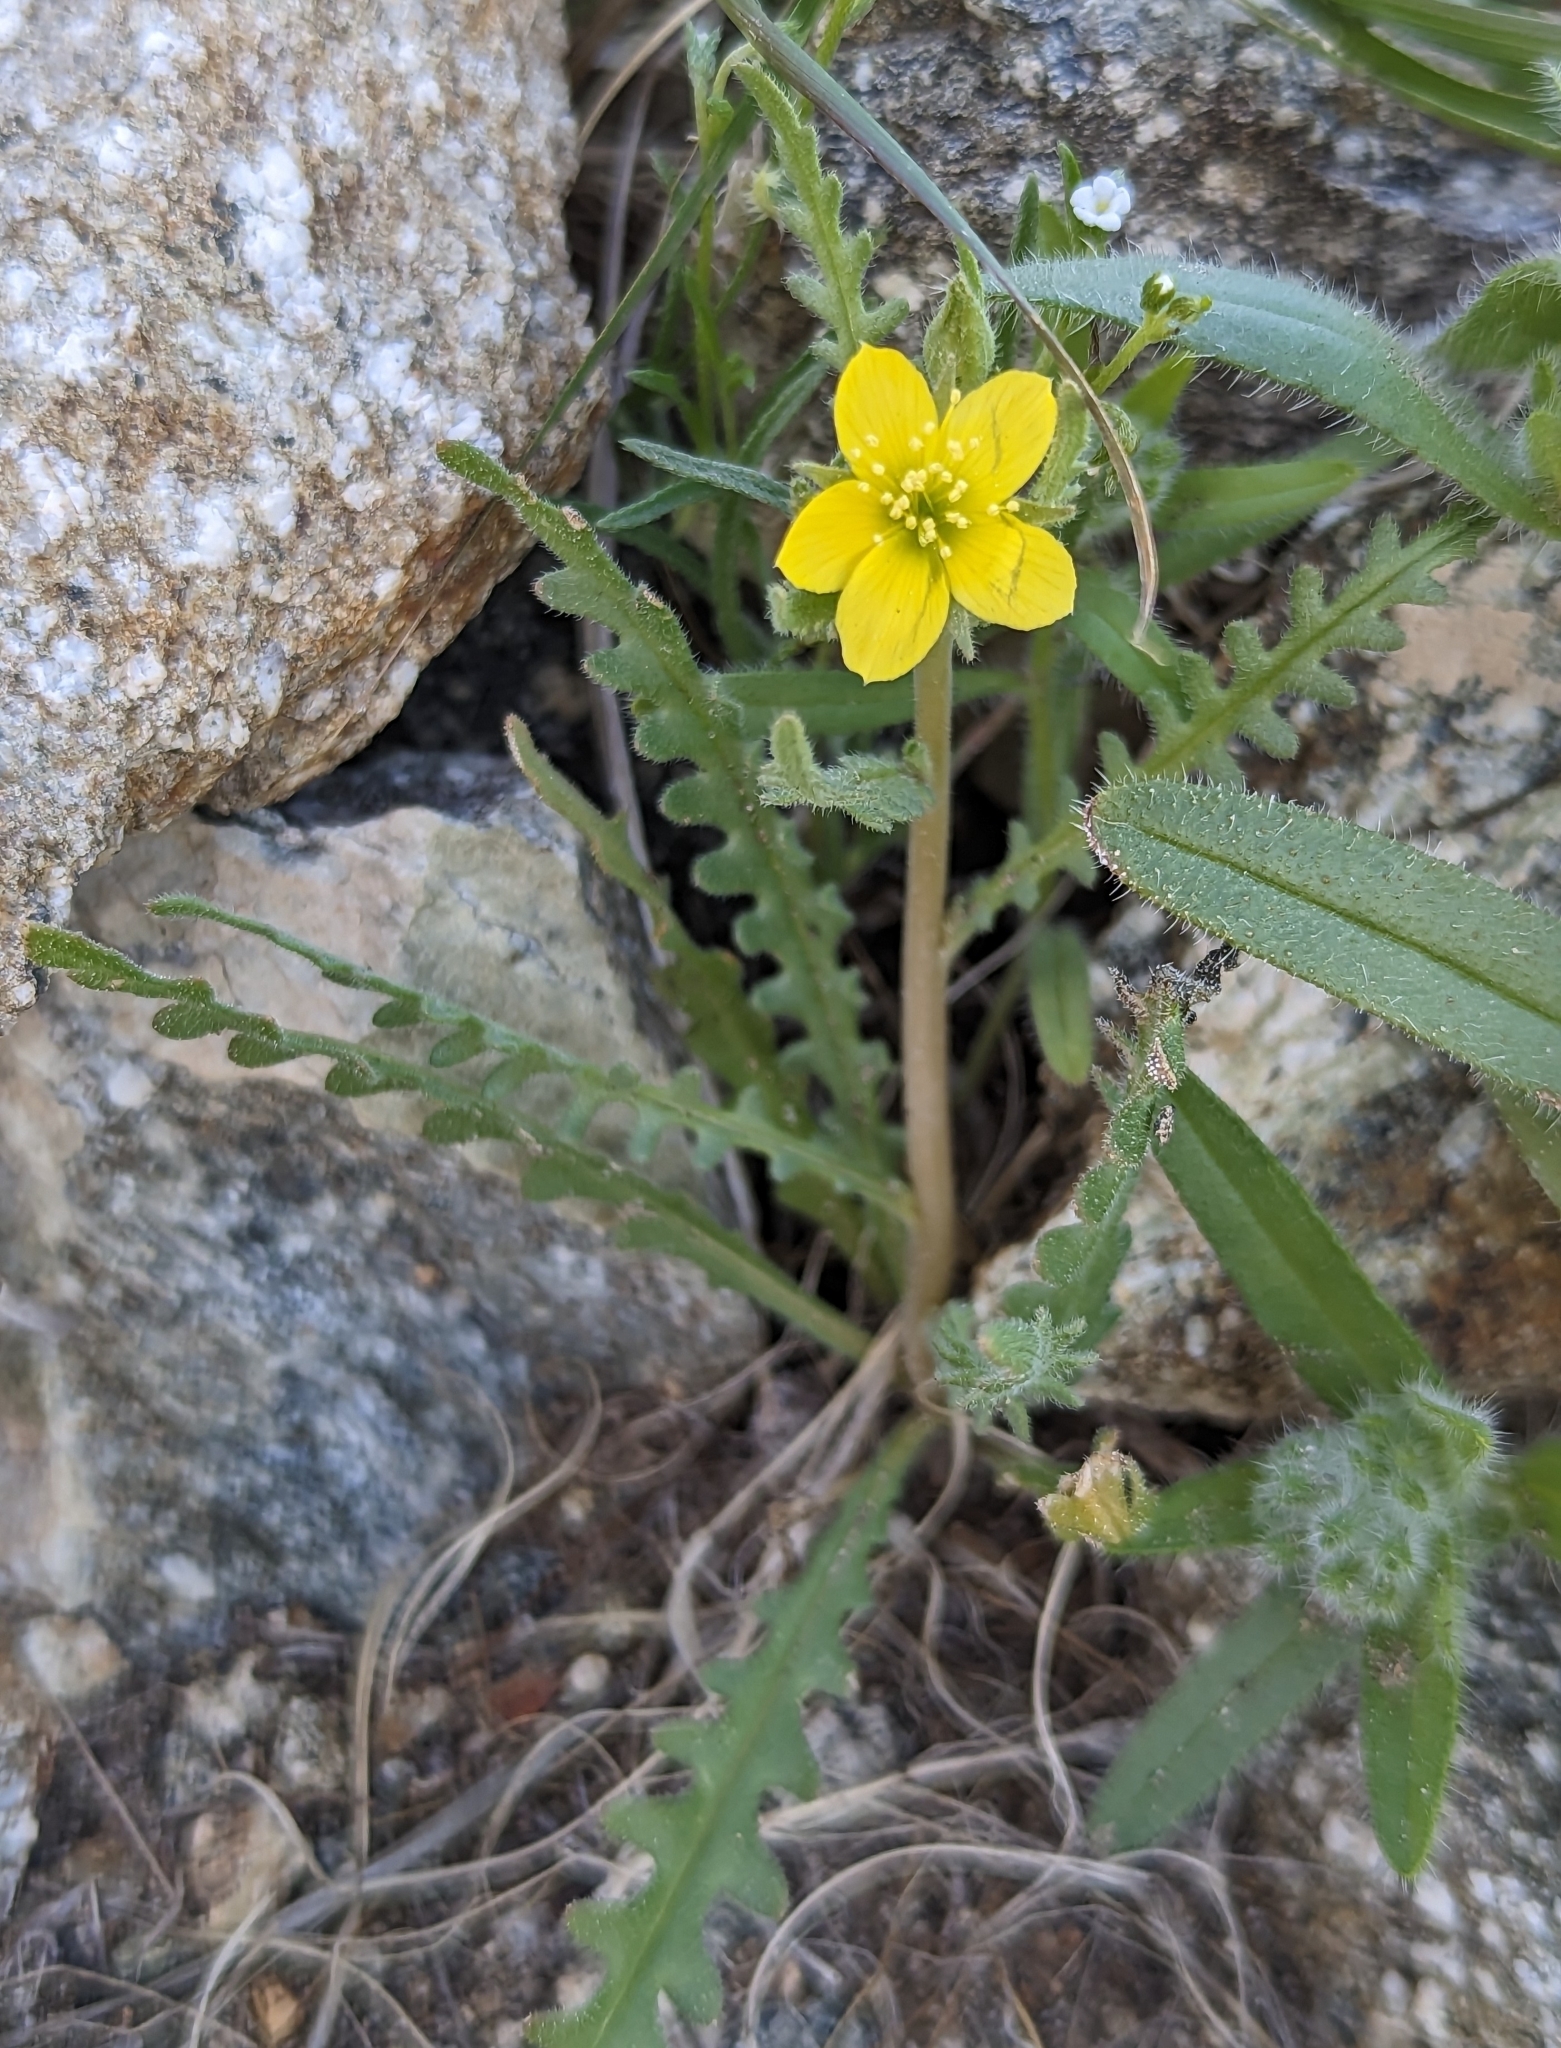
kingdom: Plantae
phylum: Tracheophyta
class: Magnoliopsida
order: Cornales
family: Loasaceae
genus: Mentzelia
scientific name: Mentzelia albicaulis
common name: White-stem blazingstar
